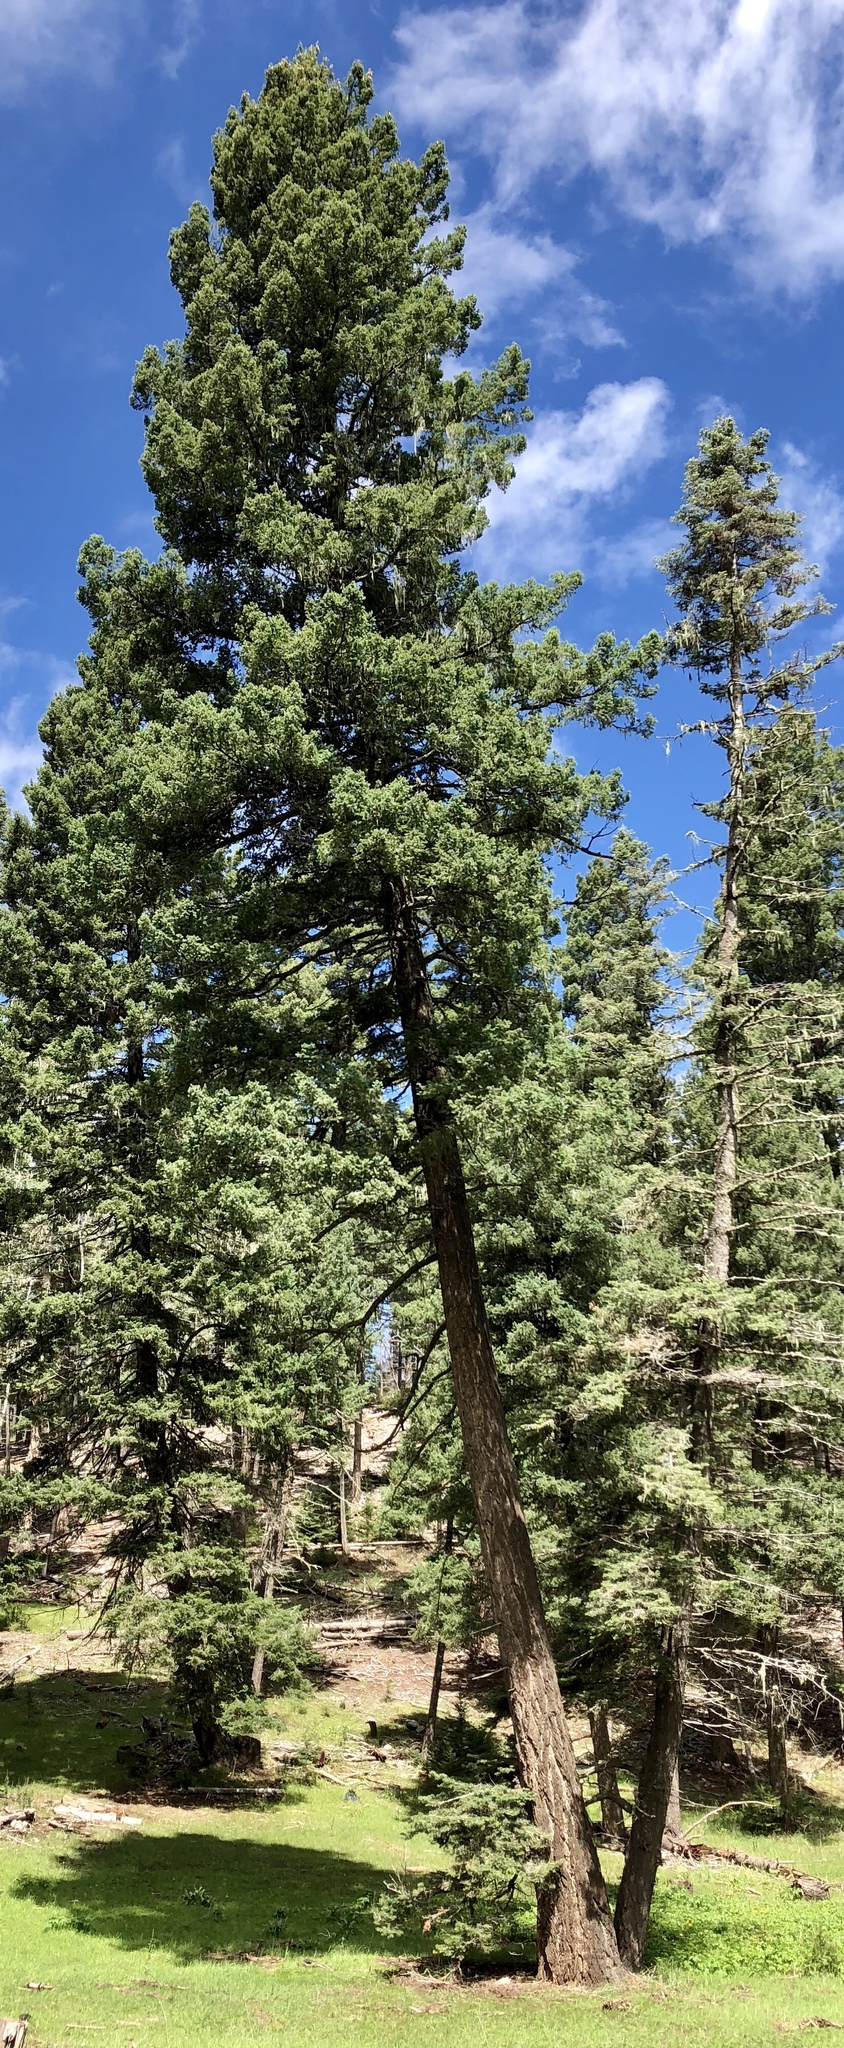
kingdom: Plantae
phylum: Tracheophyta
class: Pinopsida
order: Pinales
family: Pinaceae
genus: Pseudotsuga
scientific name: Pseudotsuga menziesii
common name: Douglas fir
